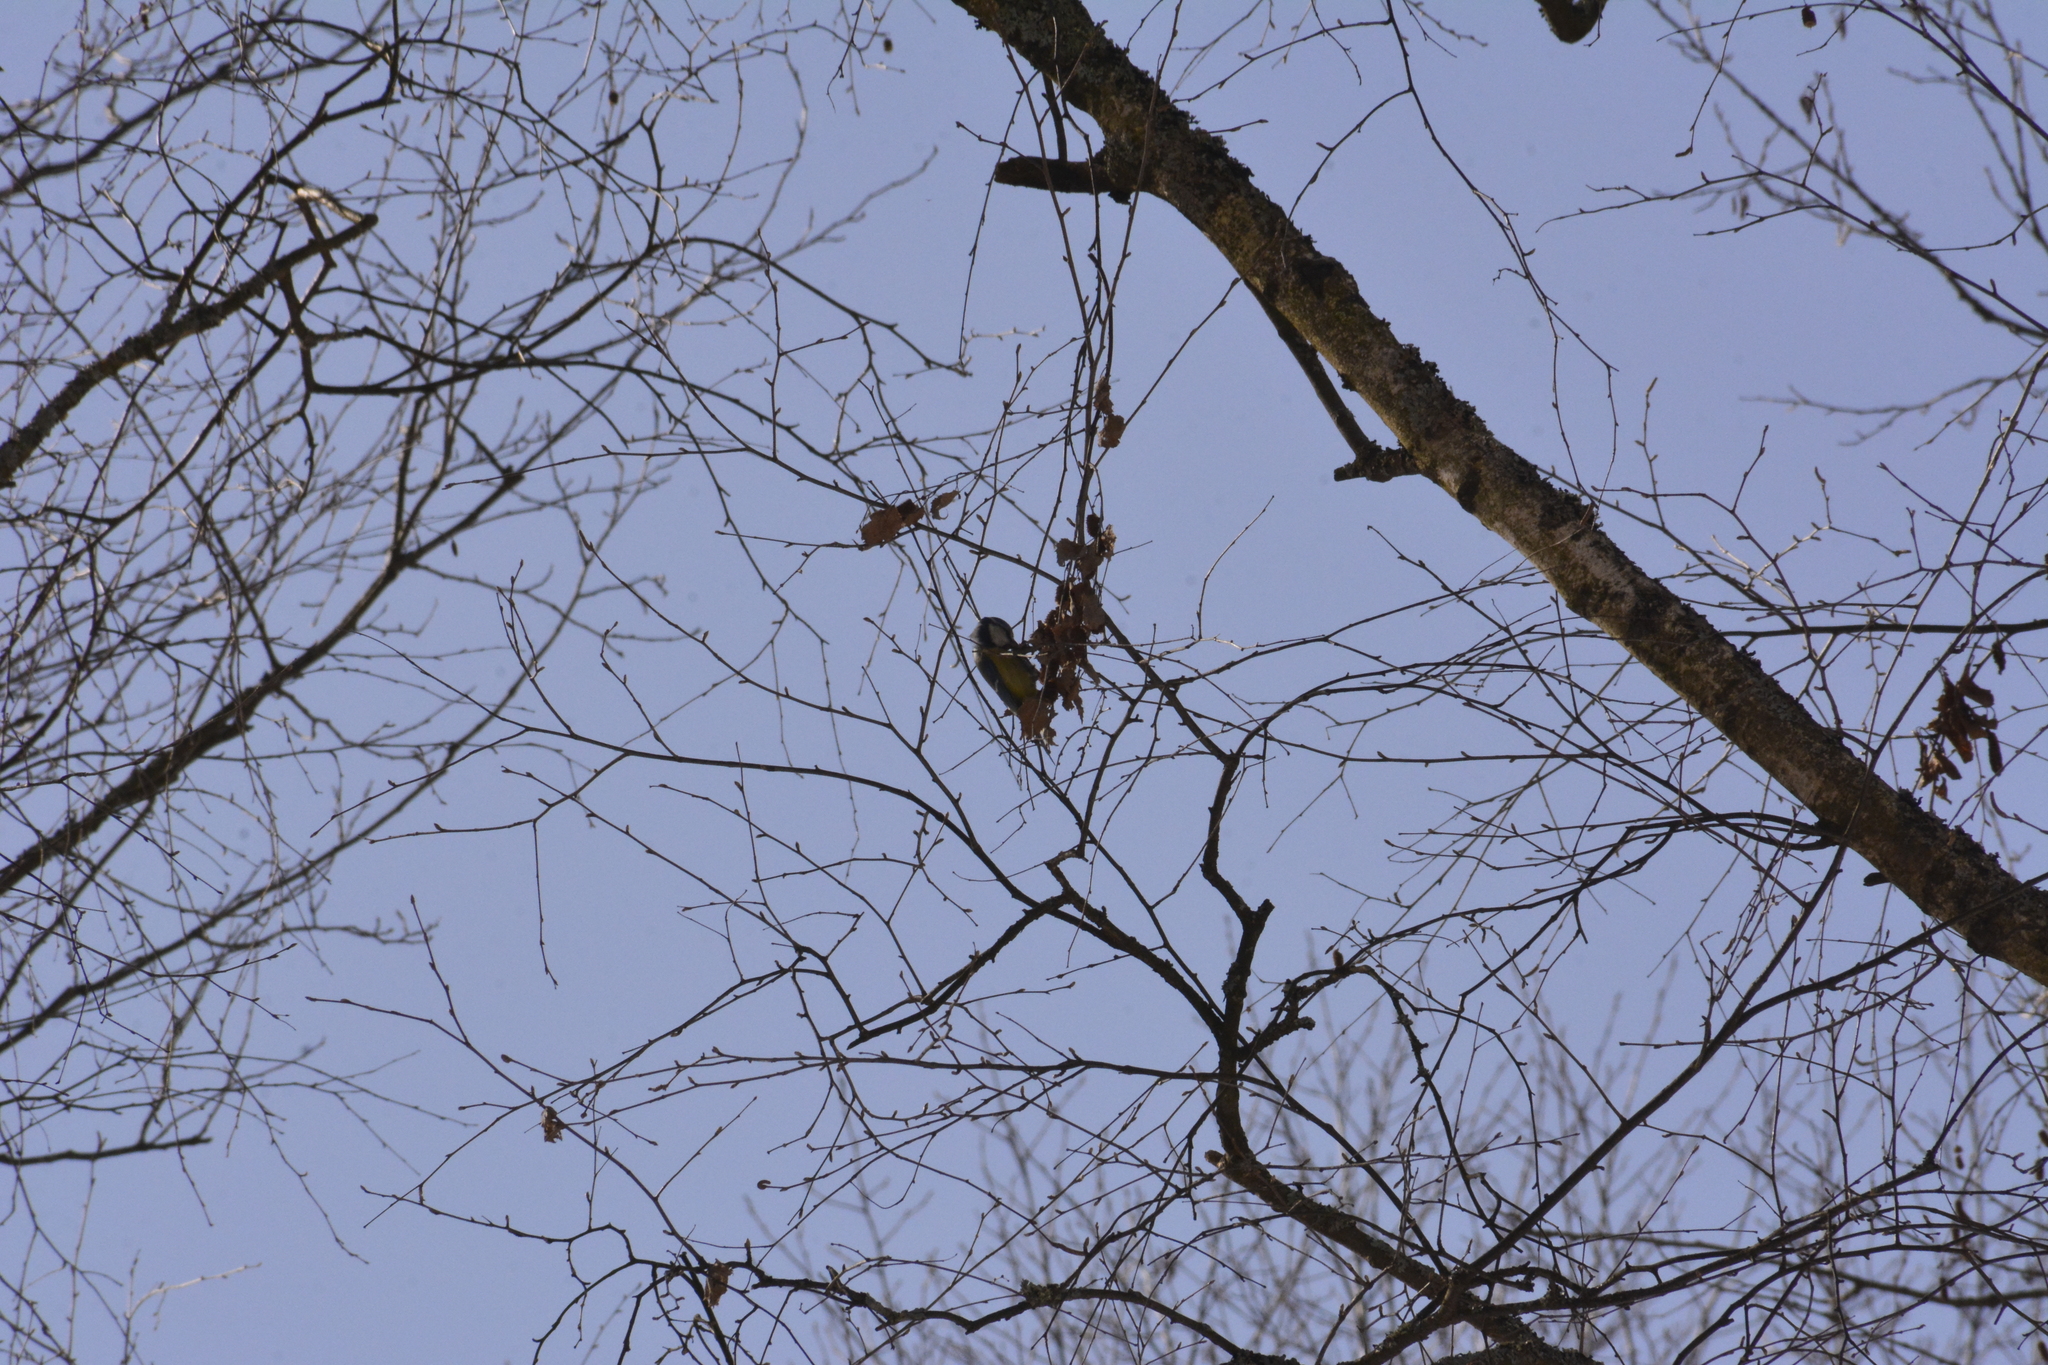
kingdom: Animalia
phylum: Chordata
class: Aves
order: Passeriformes
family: Paridae
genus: Cyanistes
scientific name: Cyanistes caeruleus
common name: Eurasian blue tit
